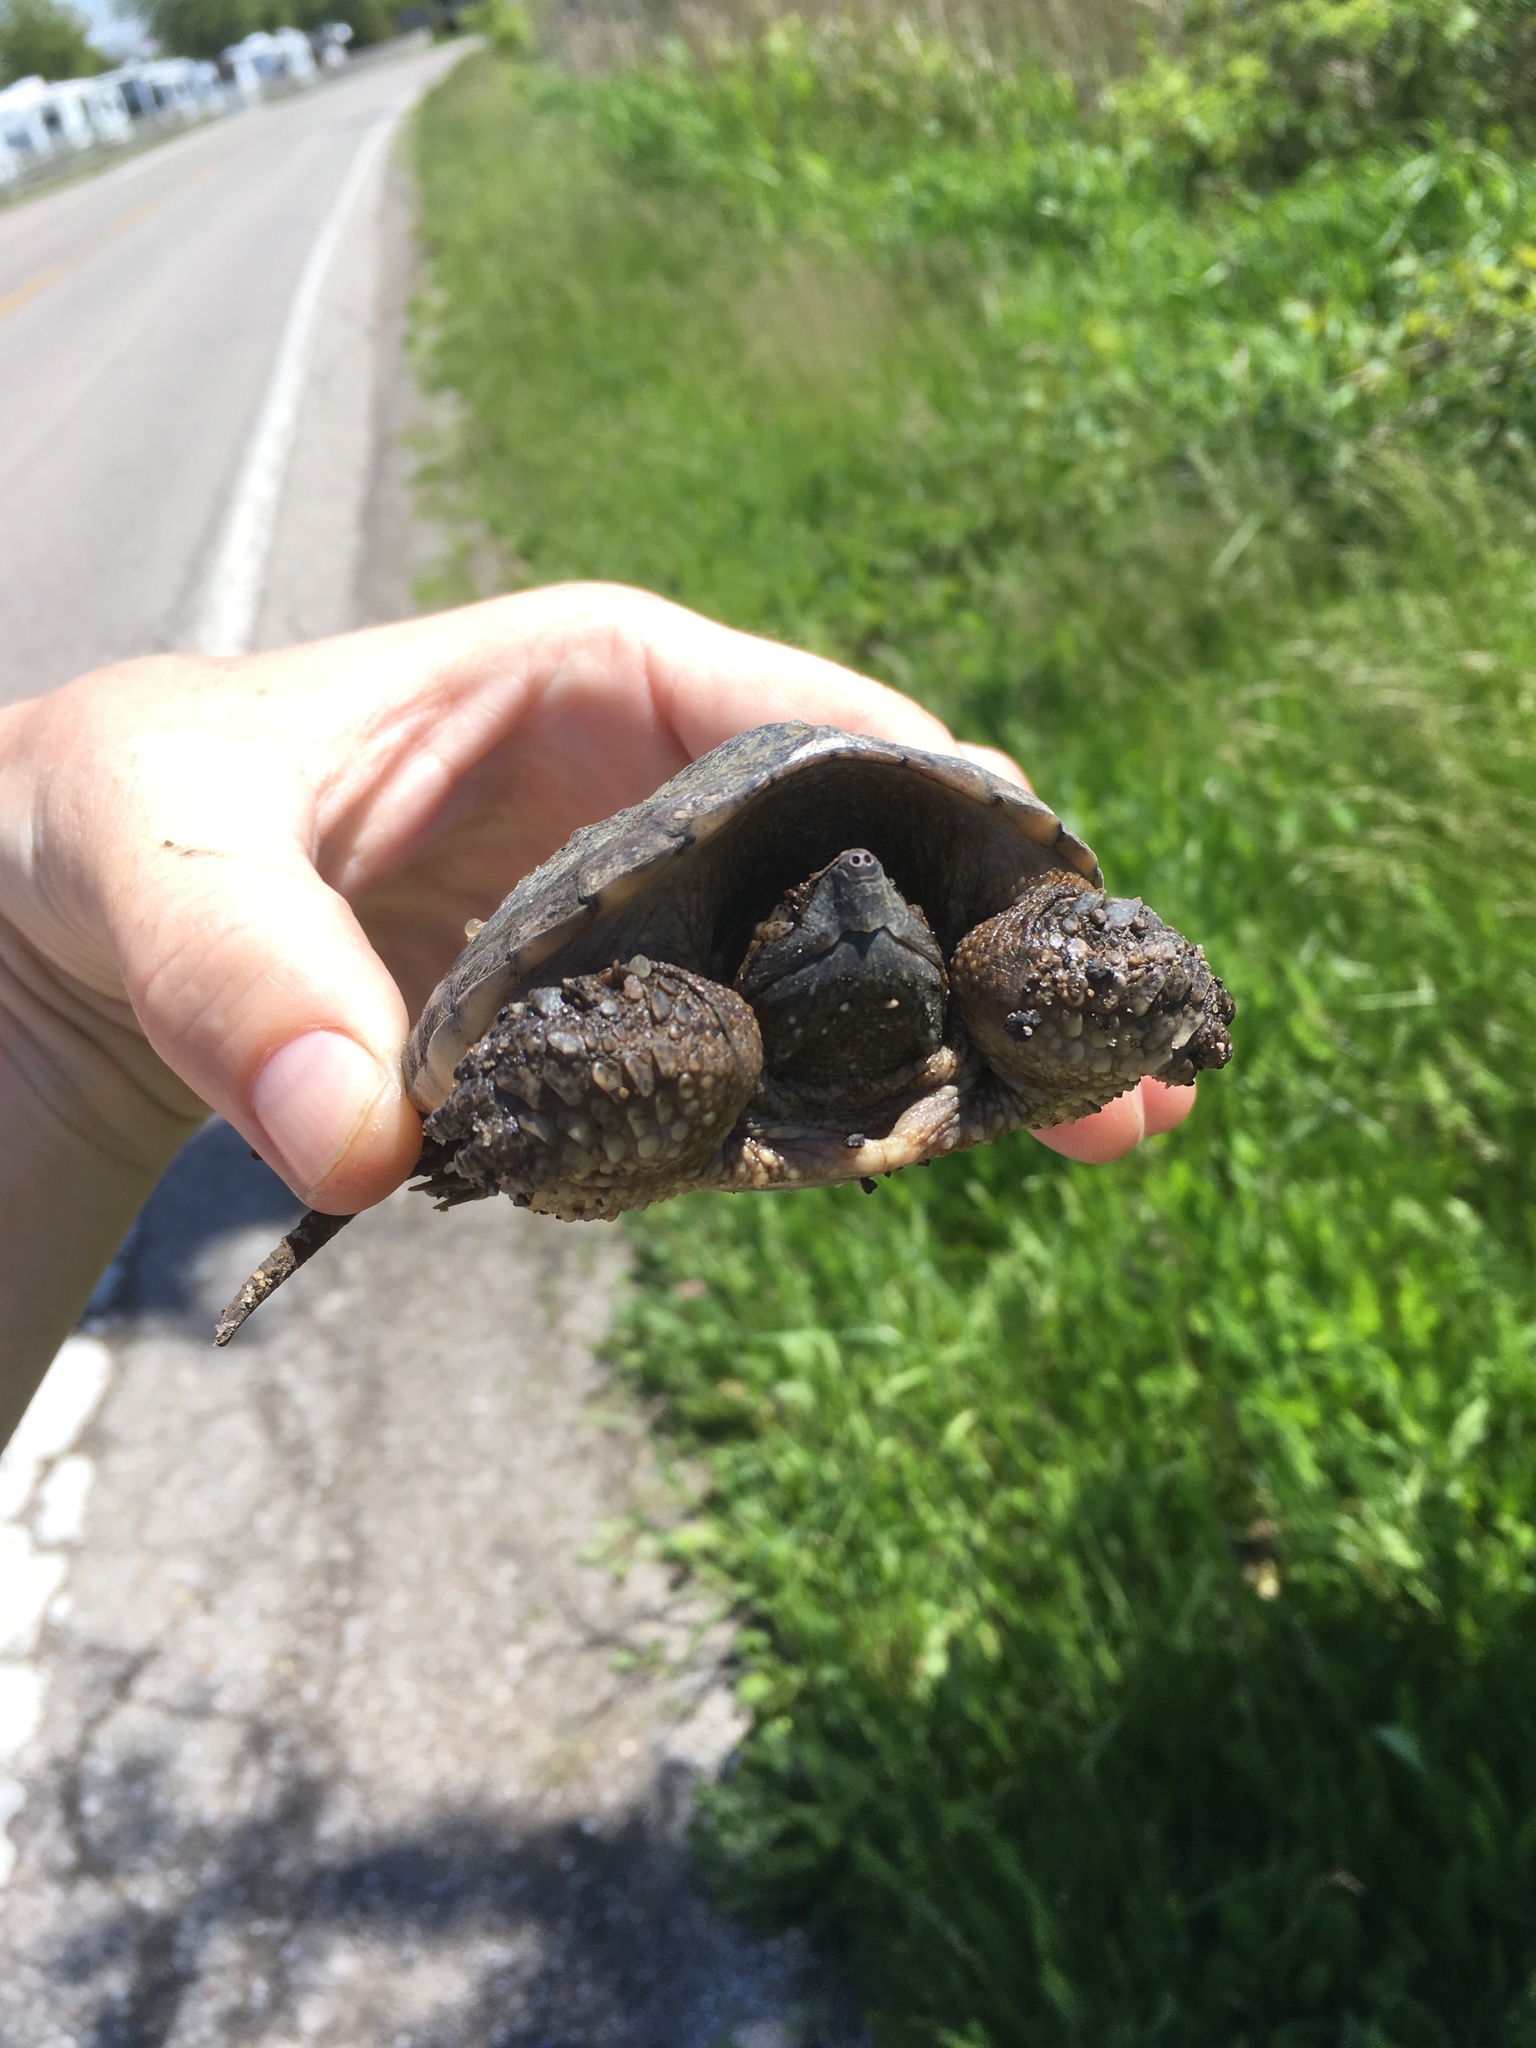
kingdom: Animalia
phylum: Chordata
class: Testudines
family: Chelydridae
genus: Chelydra
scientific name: Chelydra serpentina
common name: Common snapping turtle
